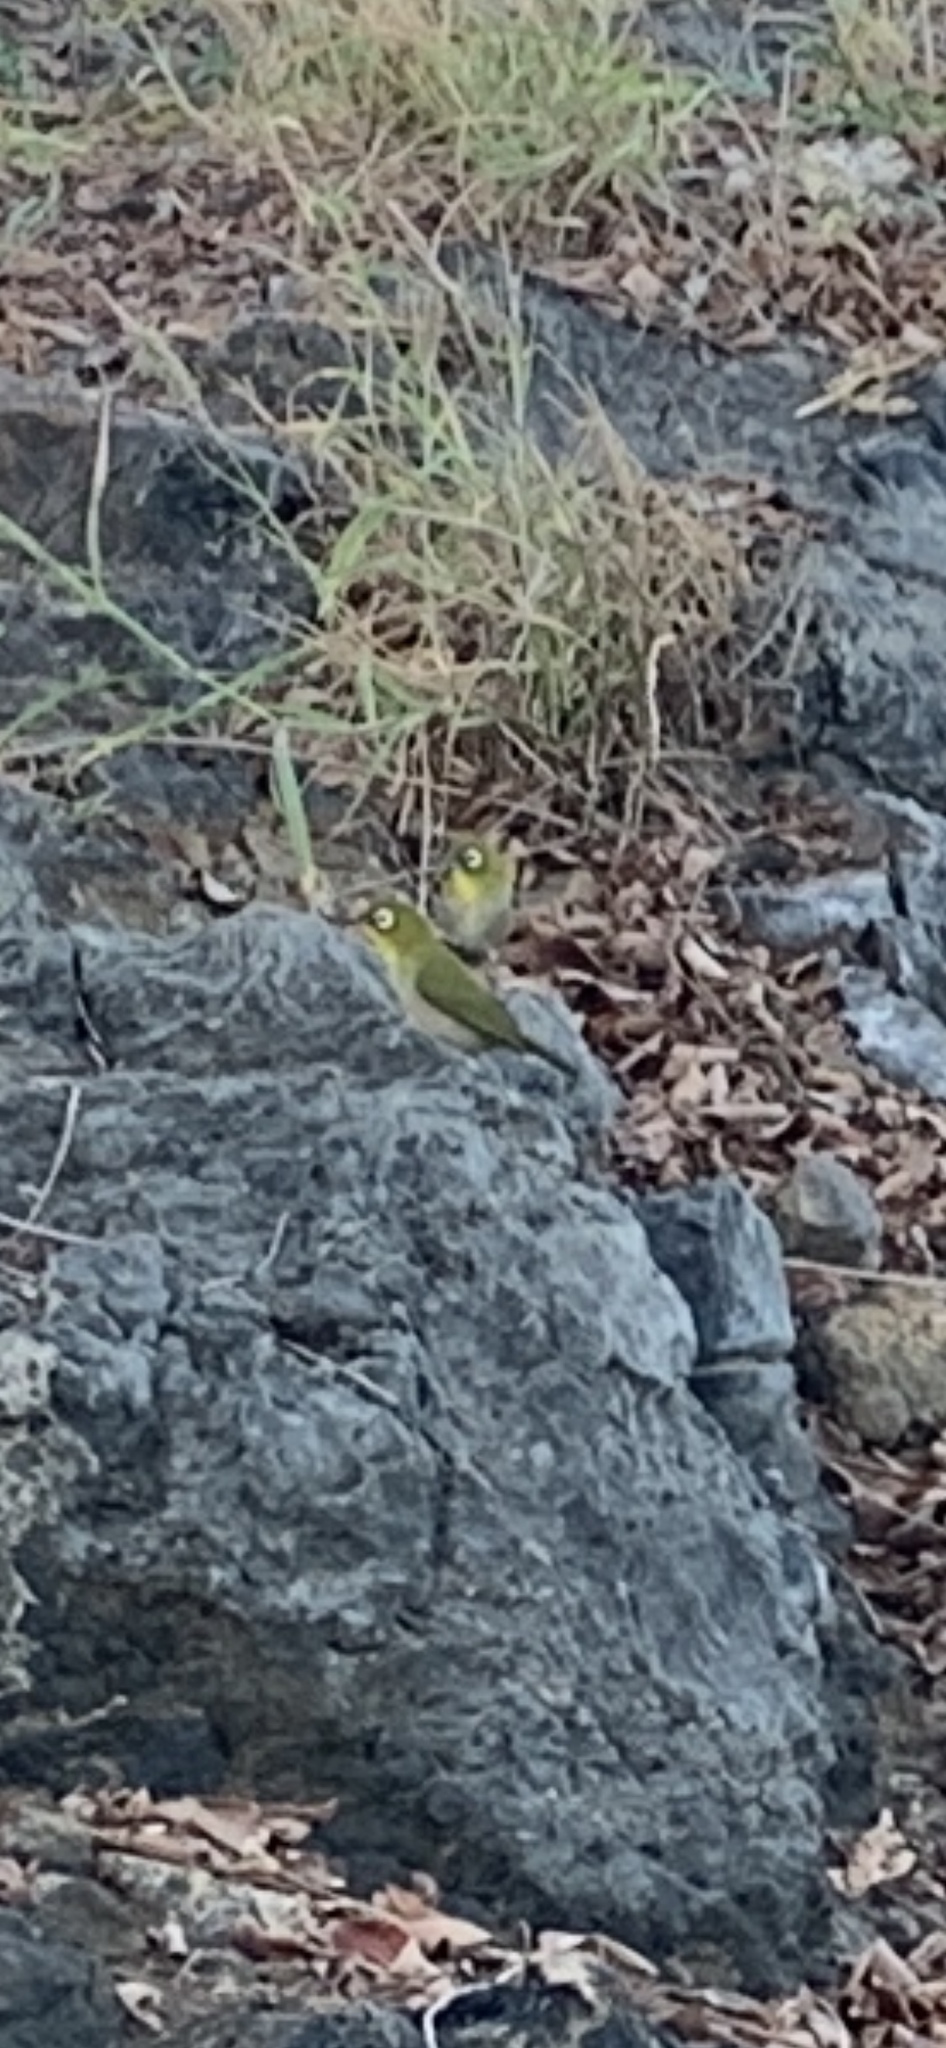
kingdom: Animalia
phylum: Chordata
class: Aves
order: Passeriformes
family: Zosteropidae
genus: Zosterops
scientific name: Zosterops japonicus
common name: Japanese white-eye
